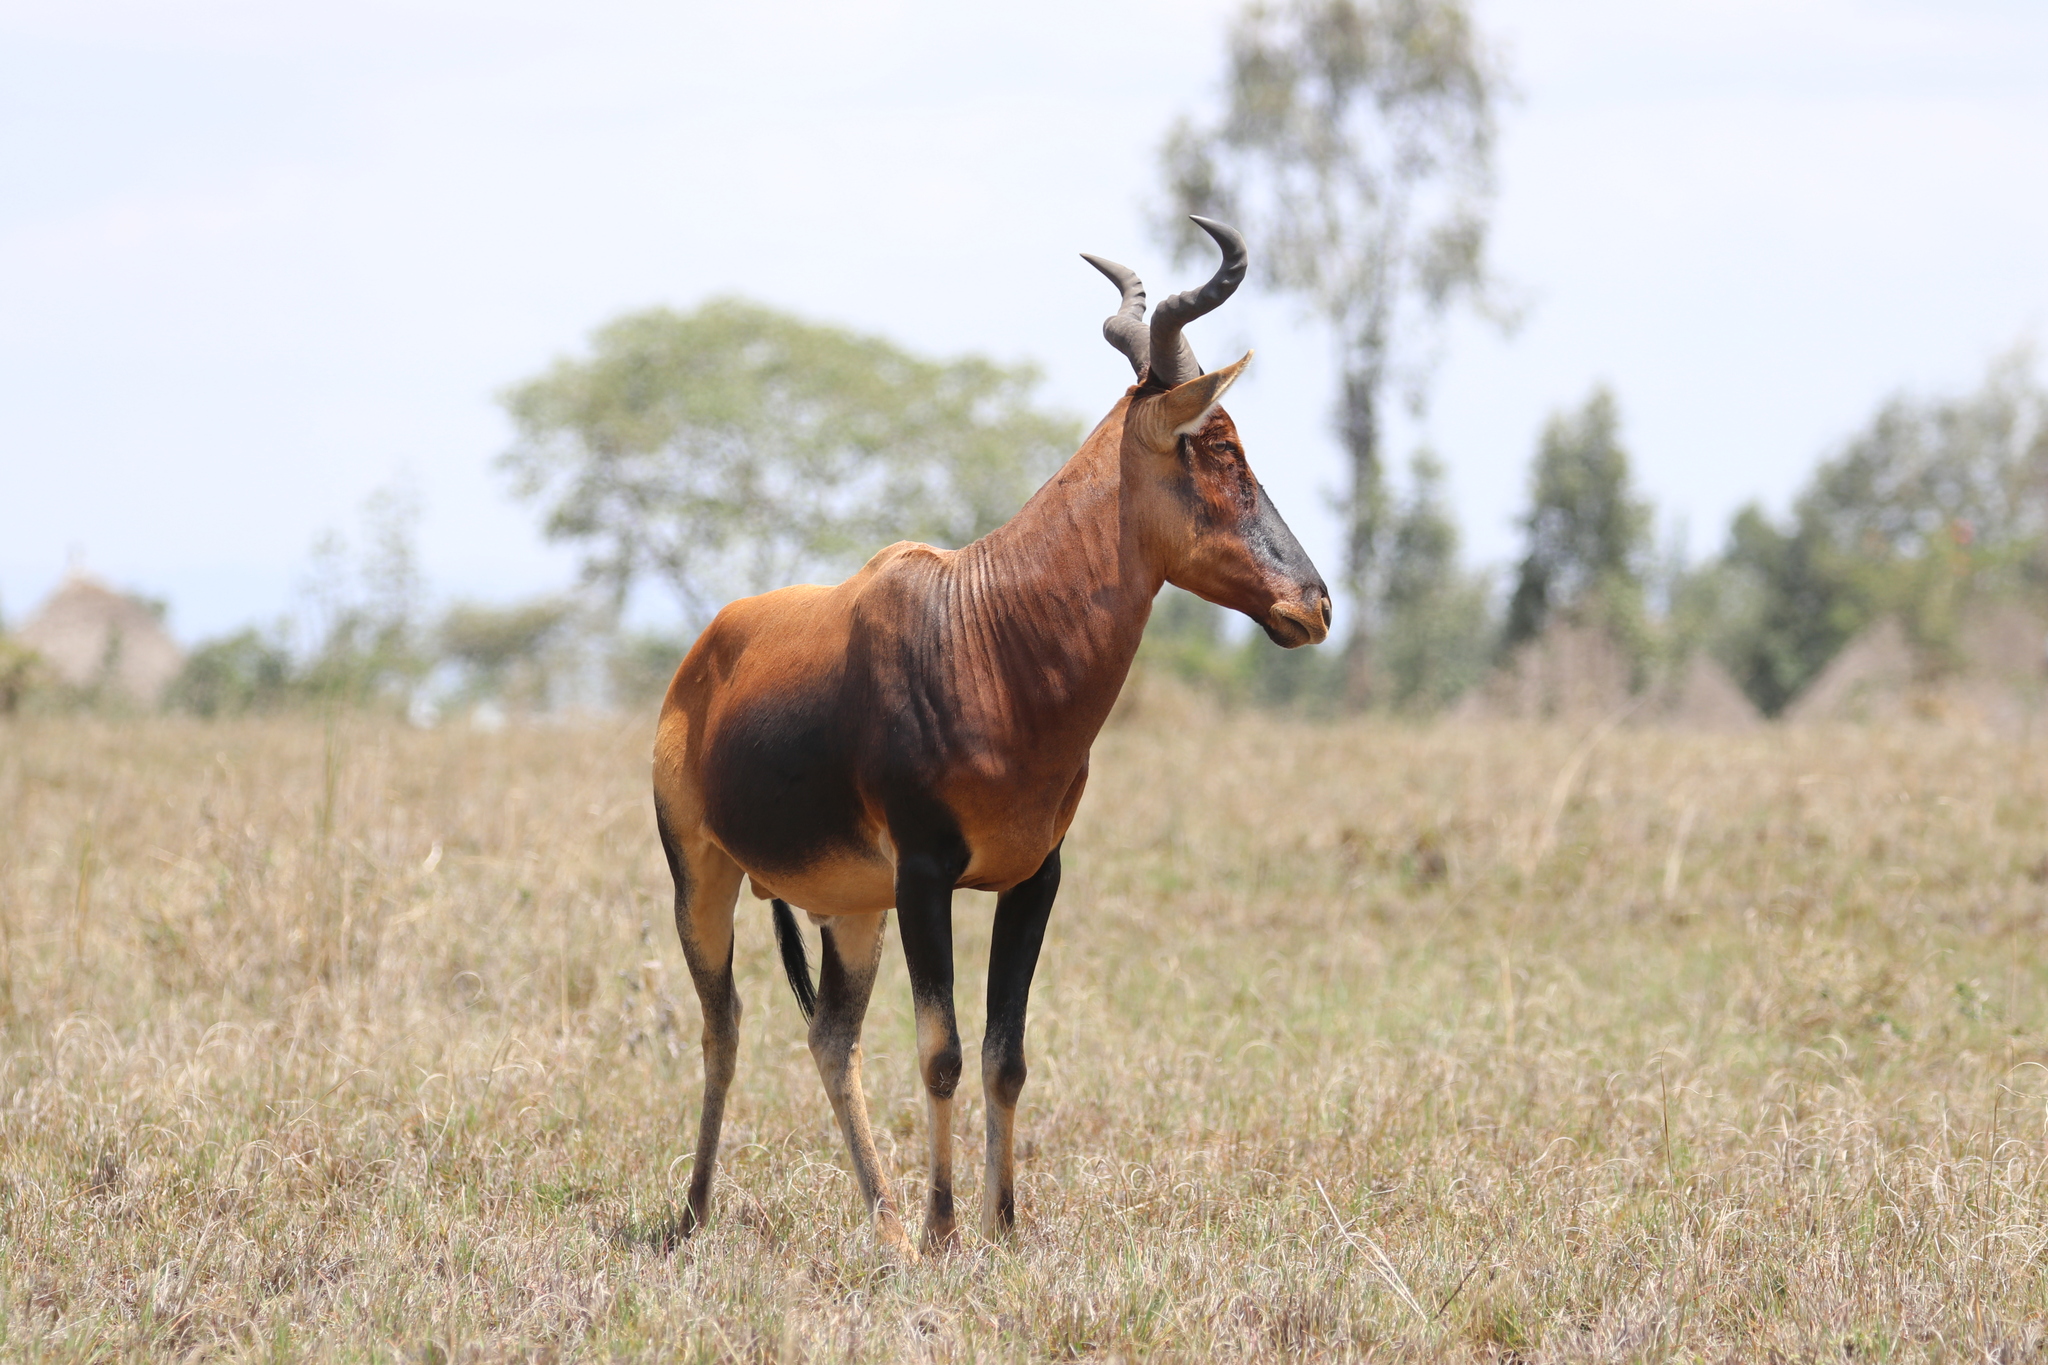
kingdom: Animalia
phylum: Chordata
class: Mammalia
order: Artiodactyla
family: Bovidae
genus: Alcelaphus
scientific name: Alcelaphus buselaphus
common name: Hartebeest
